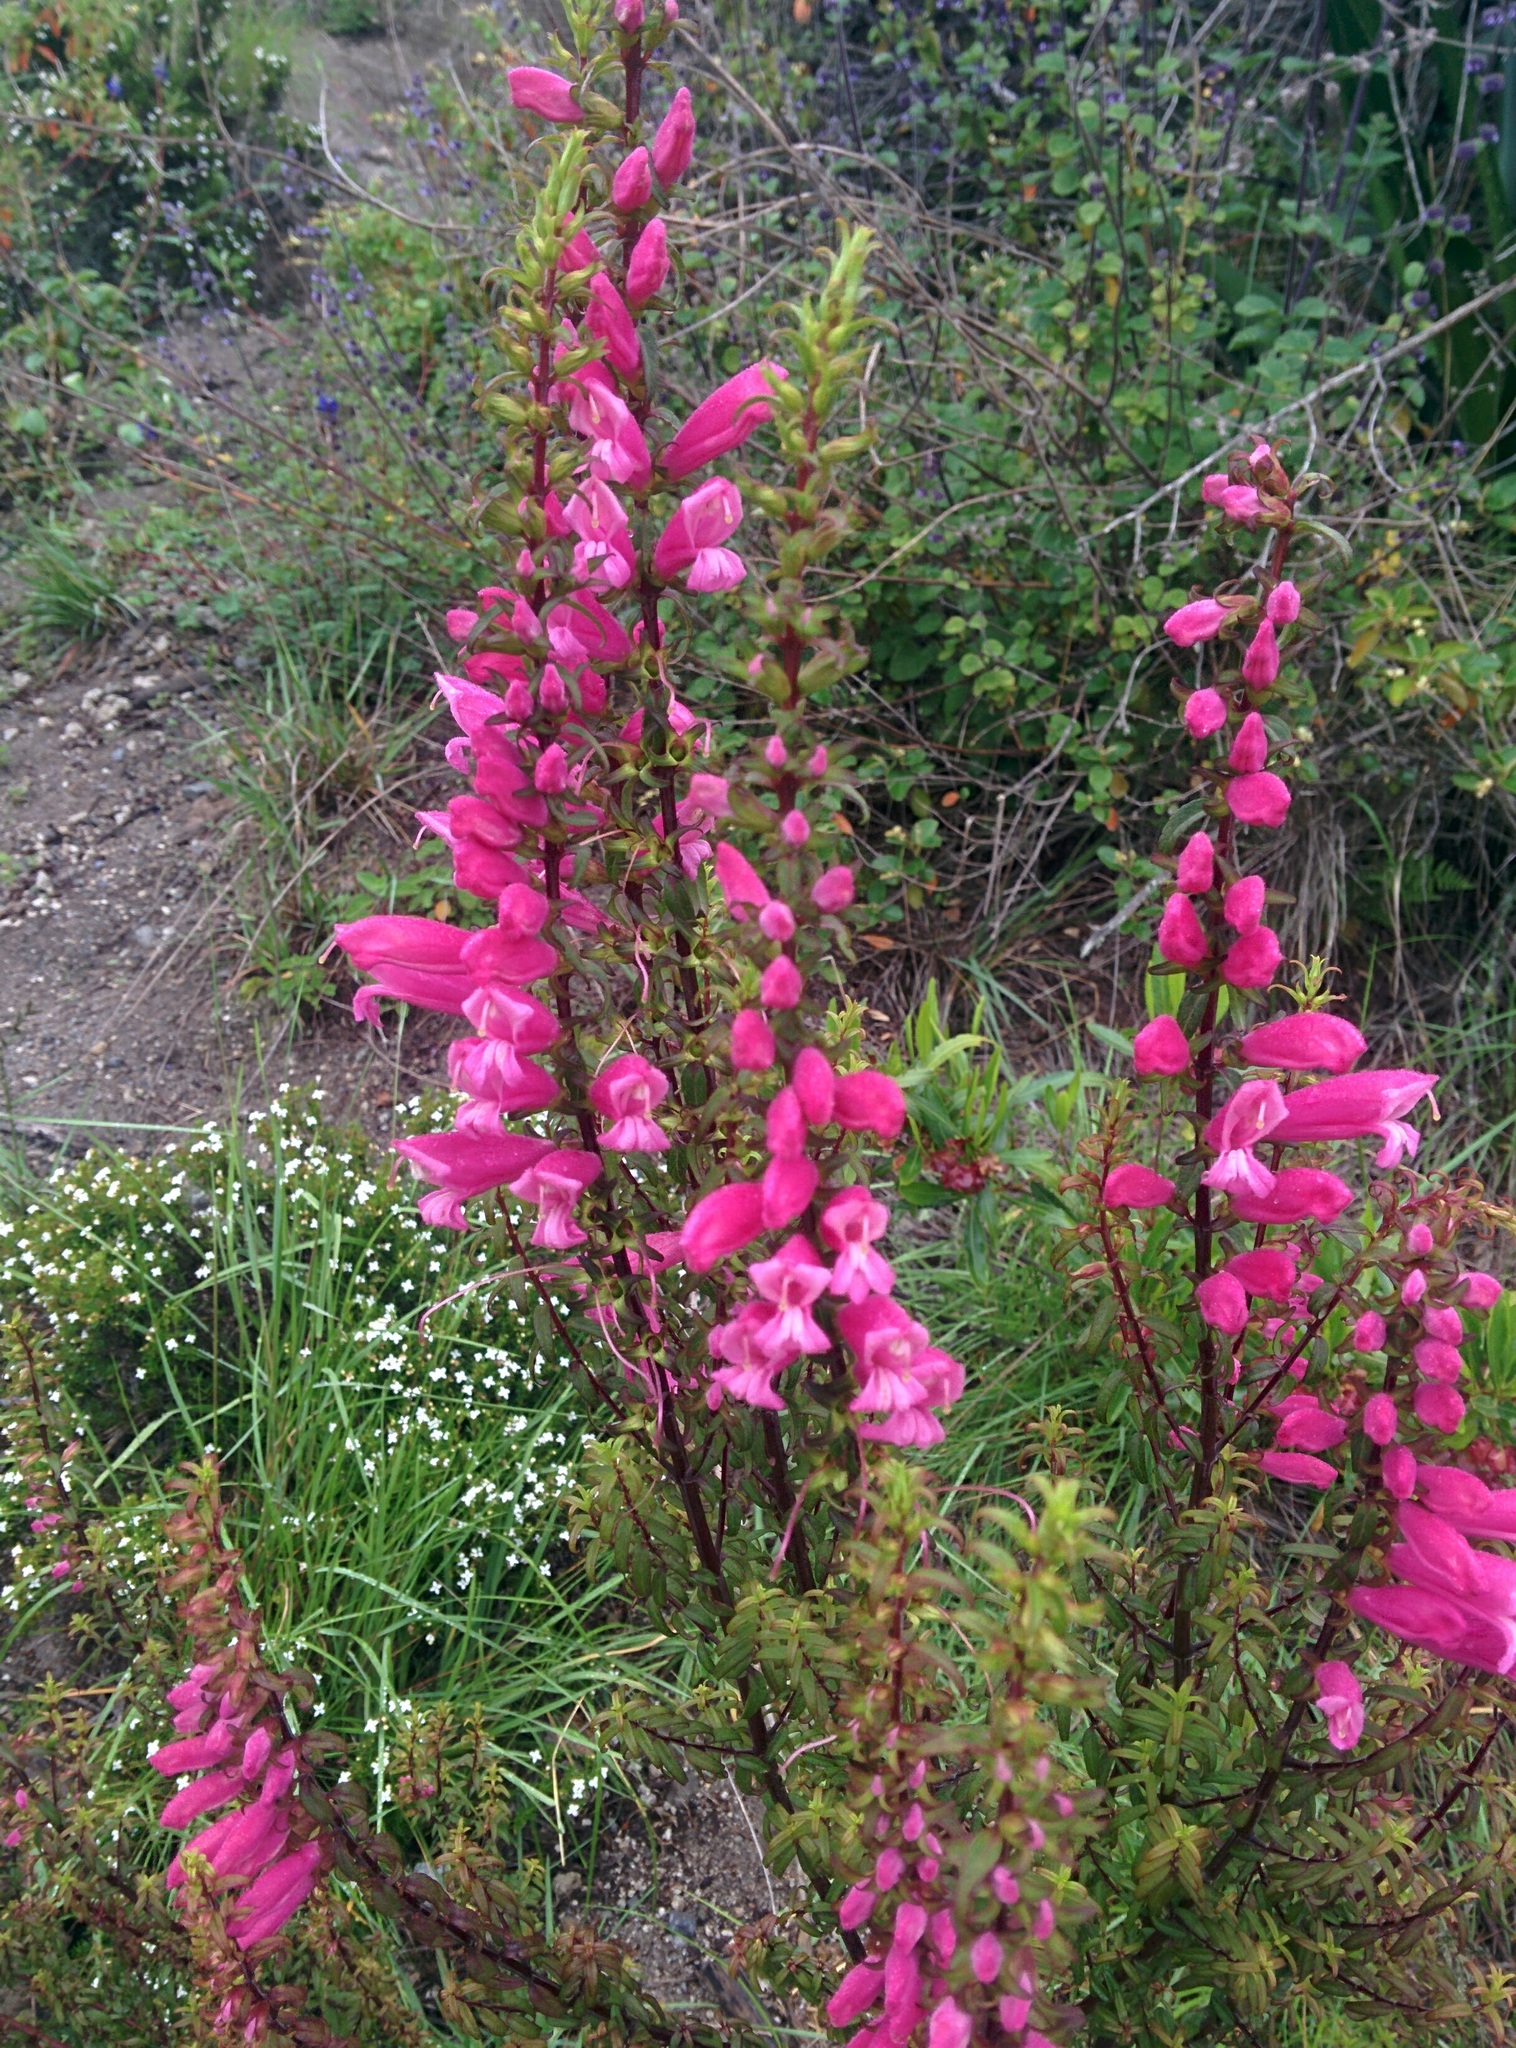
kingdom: Plantae
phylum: Tracheophyta
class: Magnoliopsida
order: Lamiales
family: Orobanchaceae
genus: Lamourouxia
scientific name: Lamourouxia virgata
